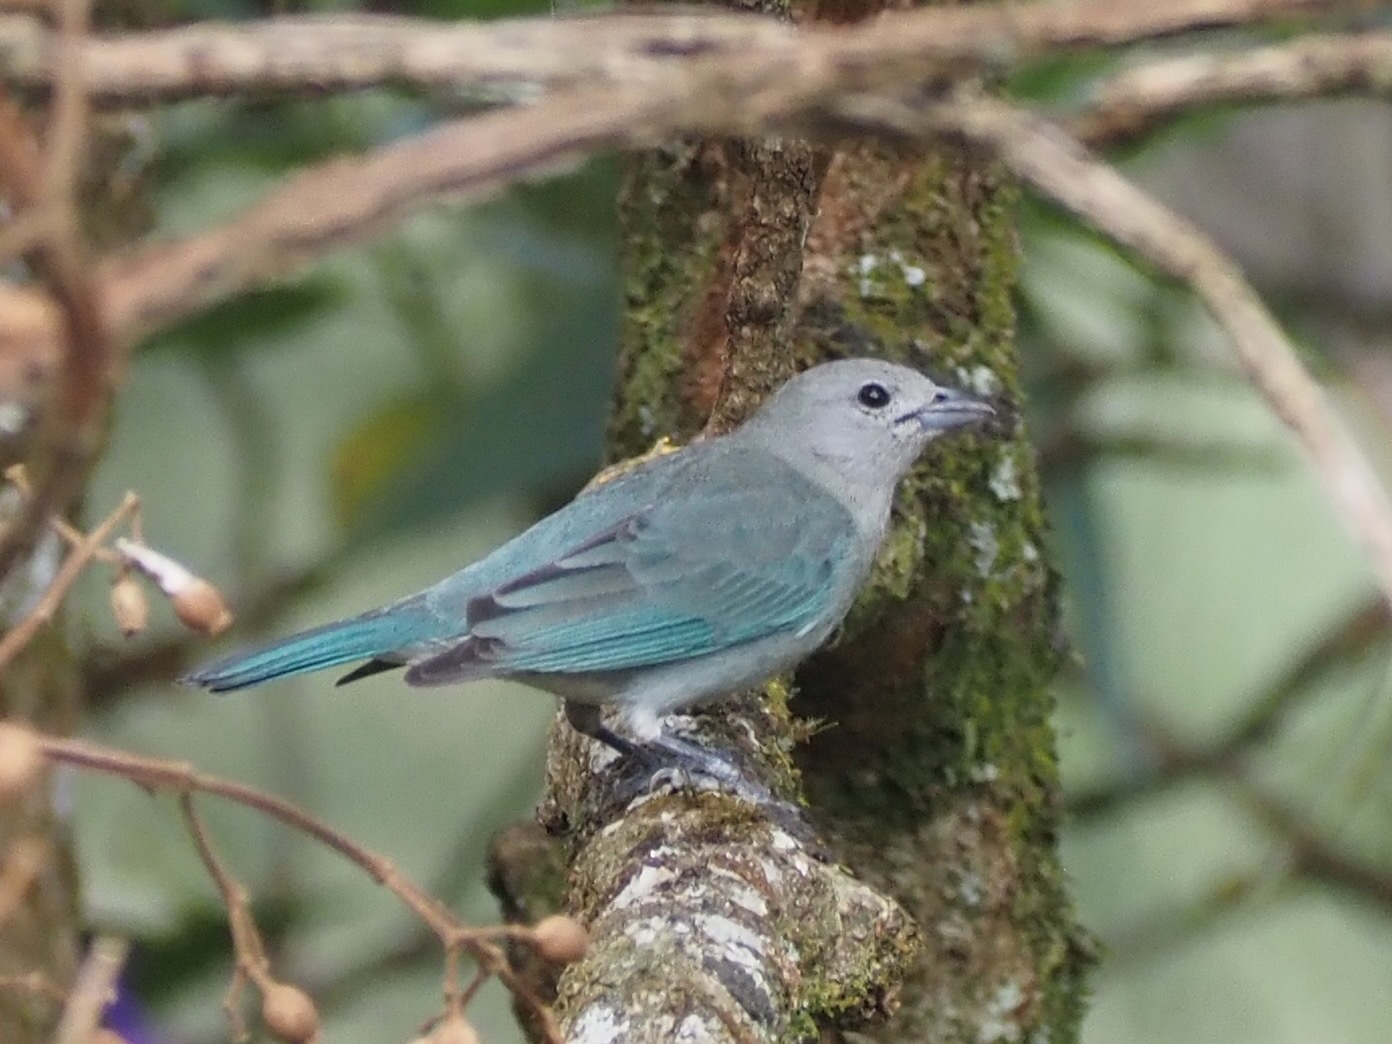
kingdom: Animalia
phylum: Chordata
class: Aves
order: Passeriformes
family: Thraupidae
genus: Thraupis
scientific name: Thraupis sayaca
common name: Sayaca tanager
